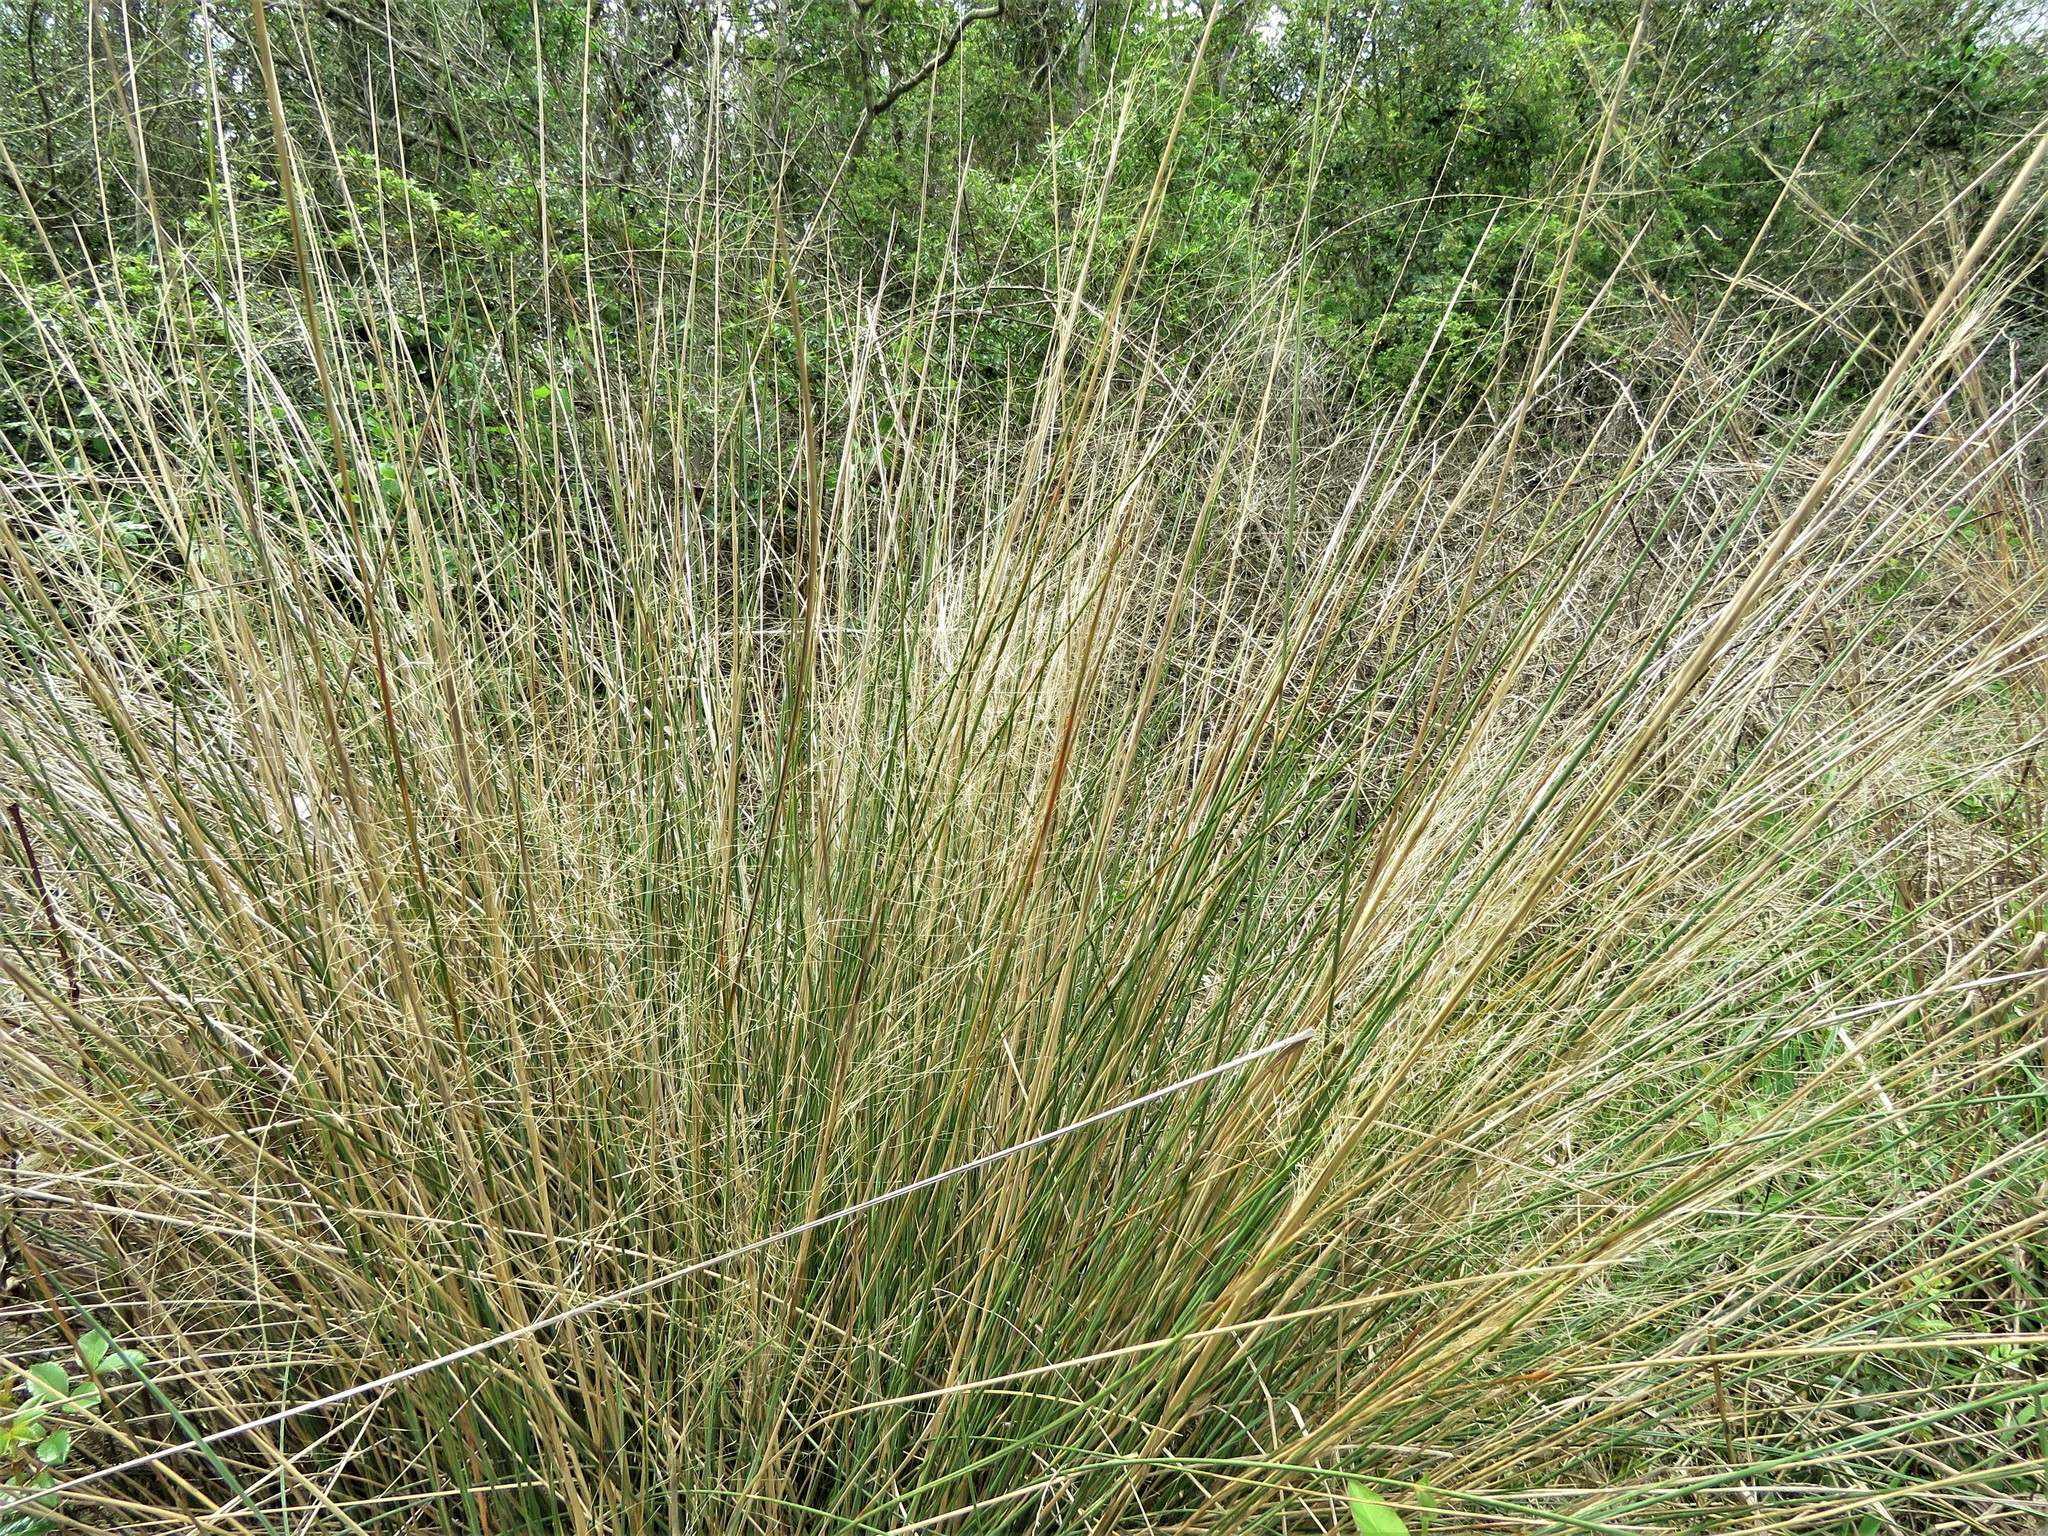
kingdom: Plantae
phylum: Tracheophyta
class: Liliopsida
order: Poales
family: Poaceae
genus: Muhlenbergia
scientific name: Muhlenbergia capillaris
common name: Purple grass
